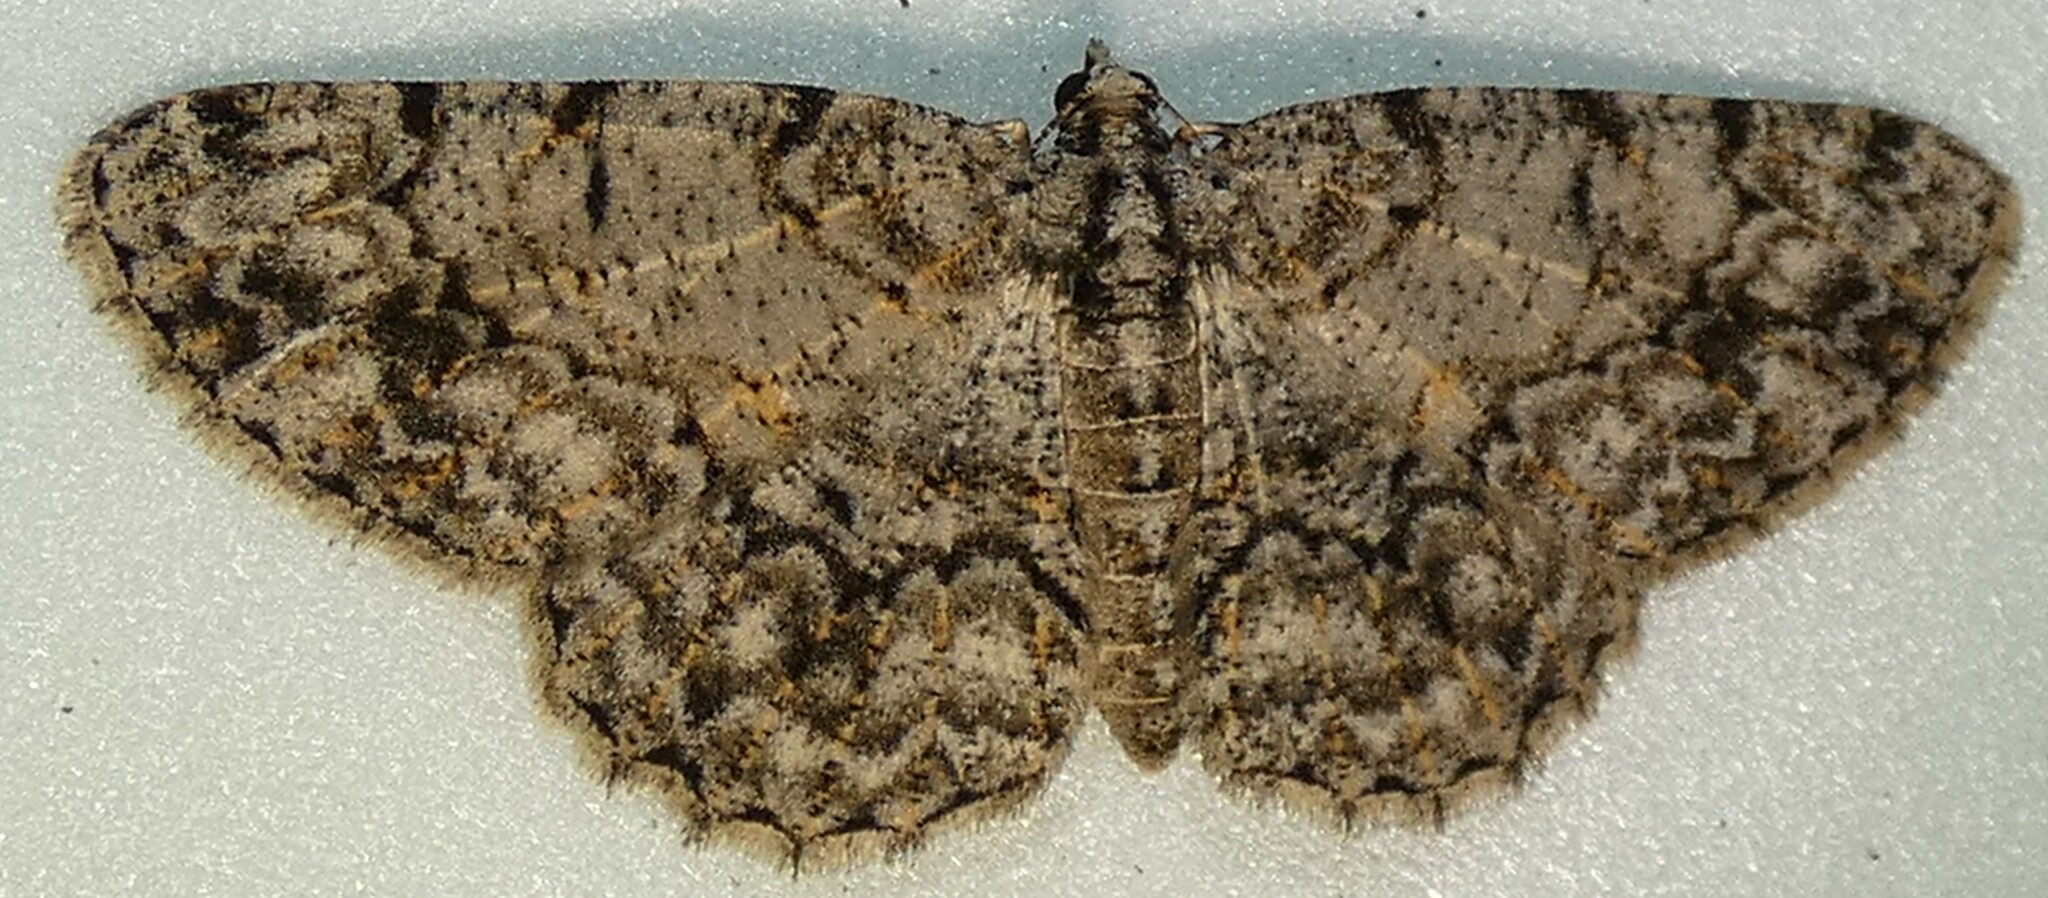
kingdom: Animalia
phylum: Arthropoda
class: Insecta
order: Lepidoptera
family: Geometridae
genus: Protoboarmia
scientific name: Protoboarmia porcelaria
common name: Porcelain gray
